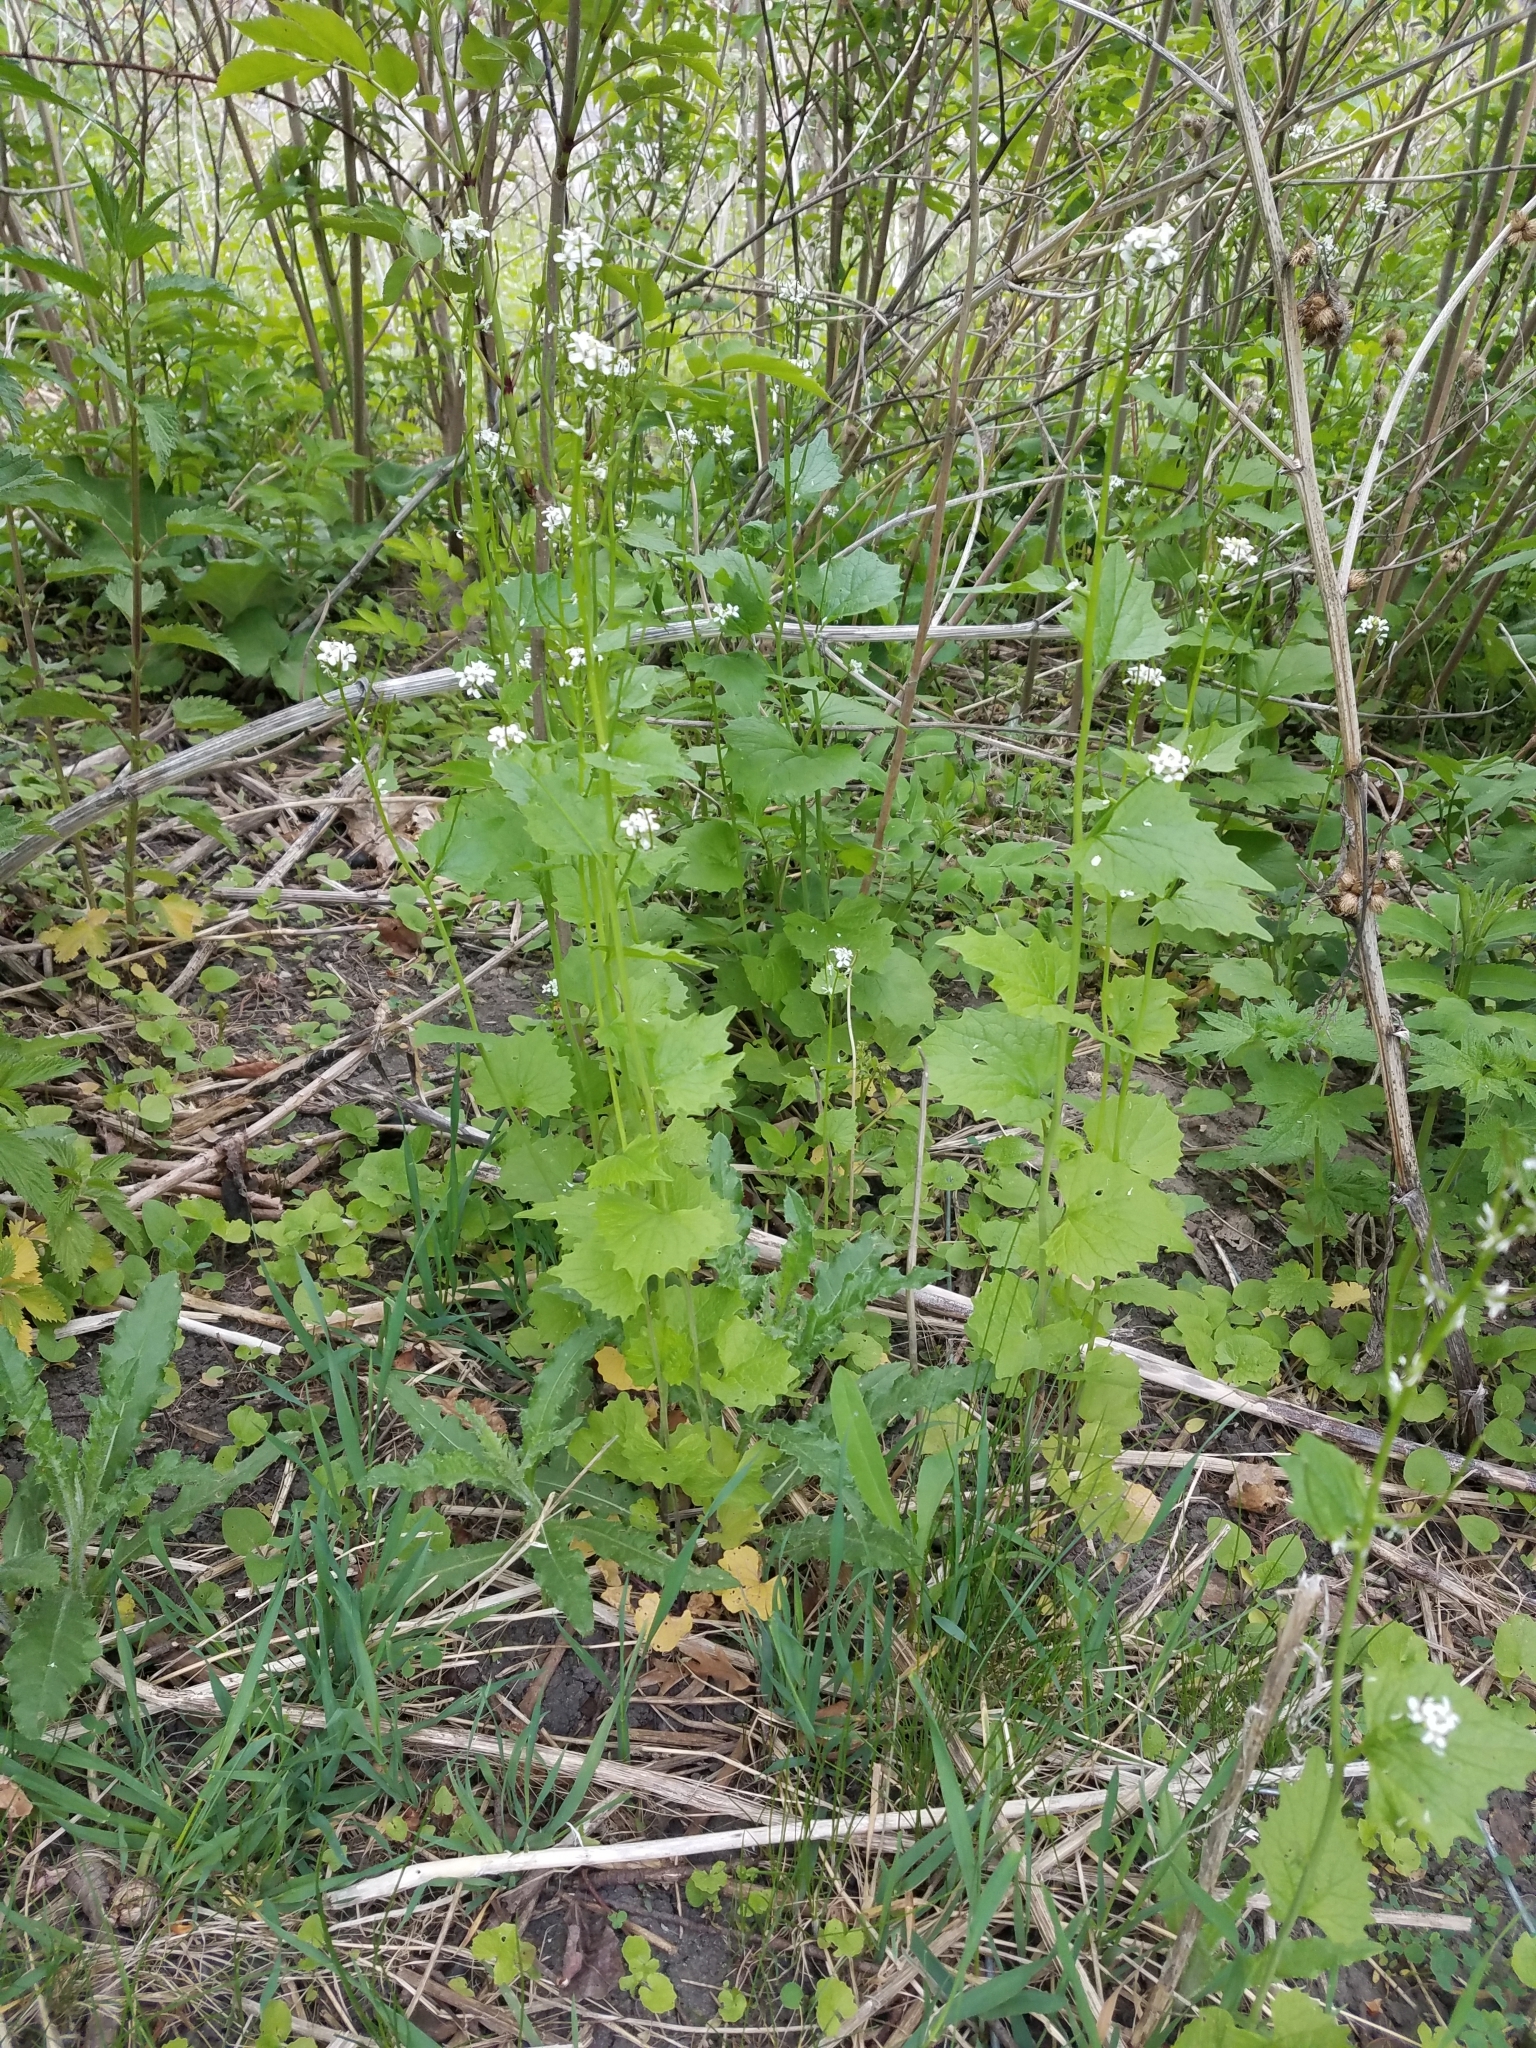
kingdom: Plantae
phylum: Tracheophyta
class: Magnoliopsida
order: Brassicales
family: Brassicaceae
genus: Alliaria
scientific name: Alliaria petiolata
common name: Garlic mustard
